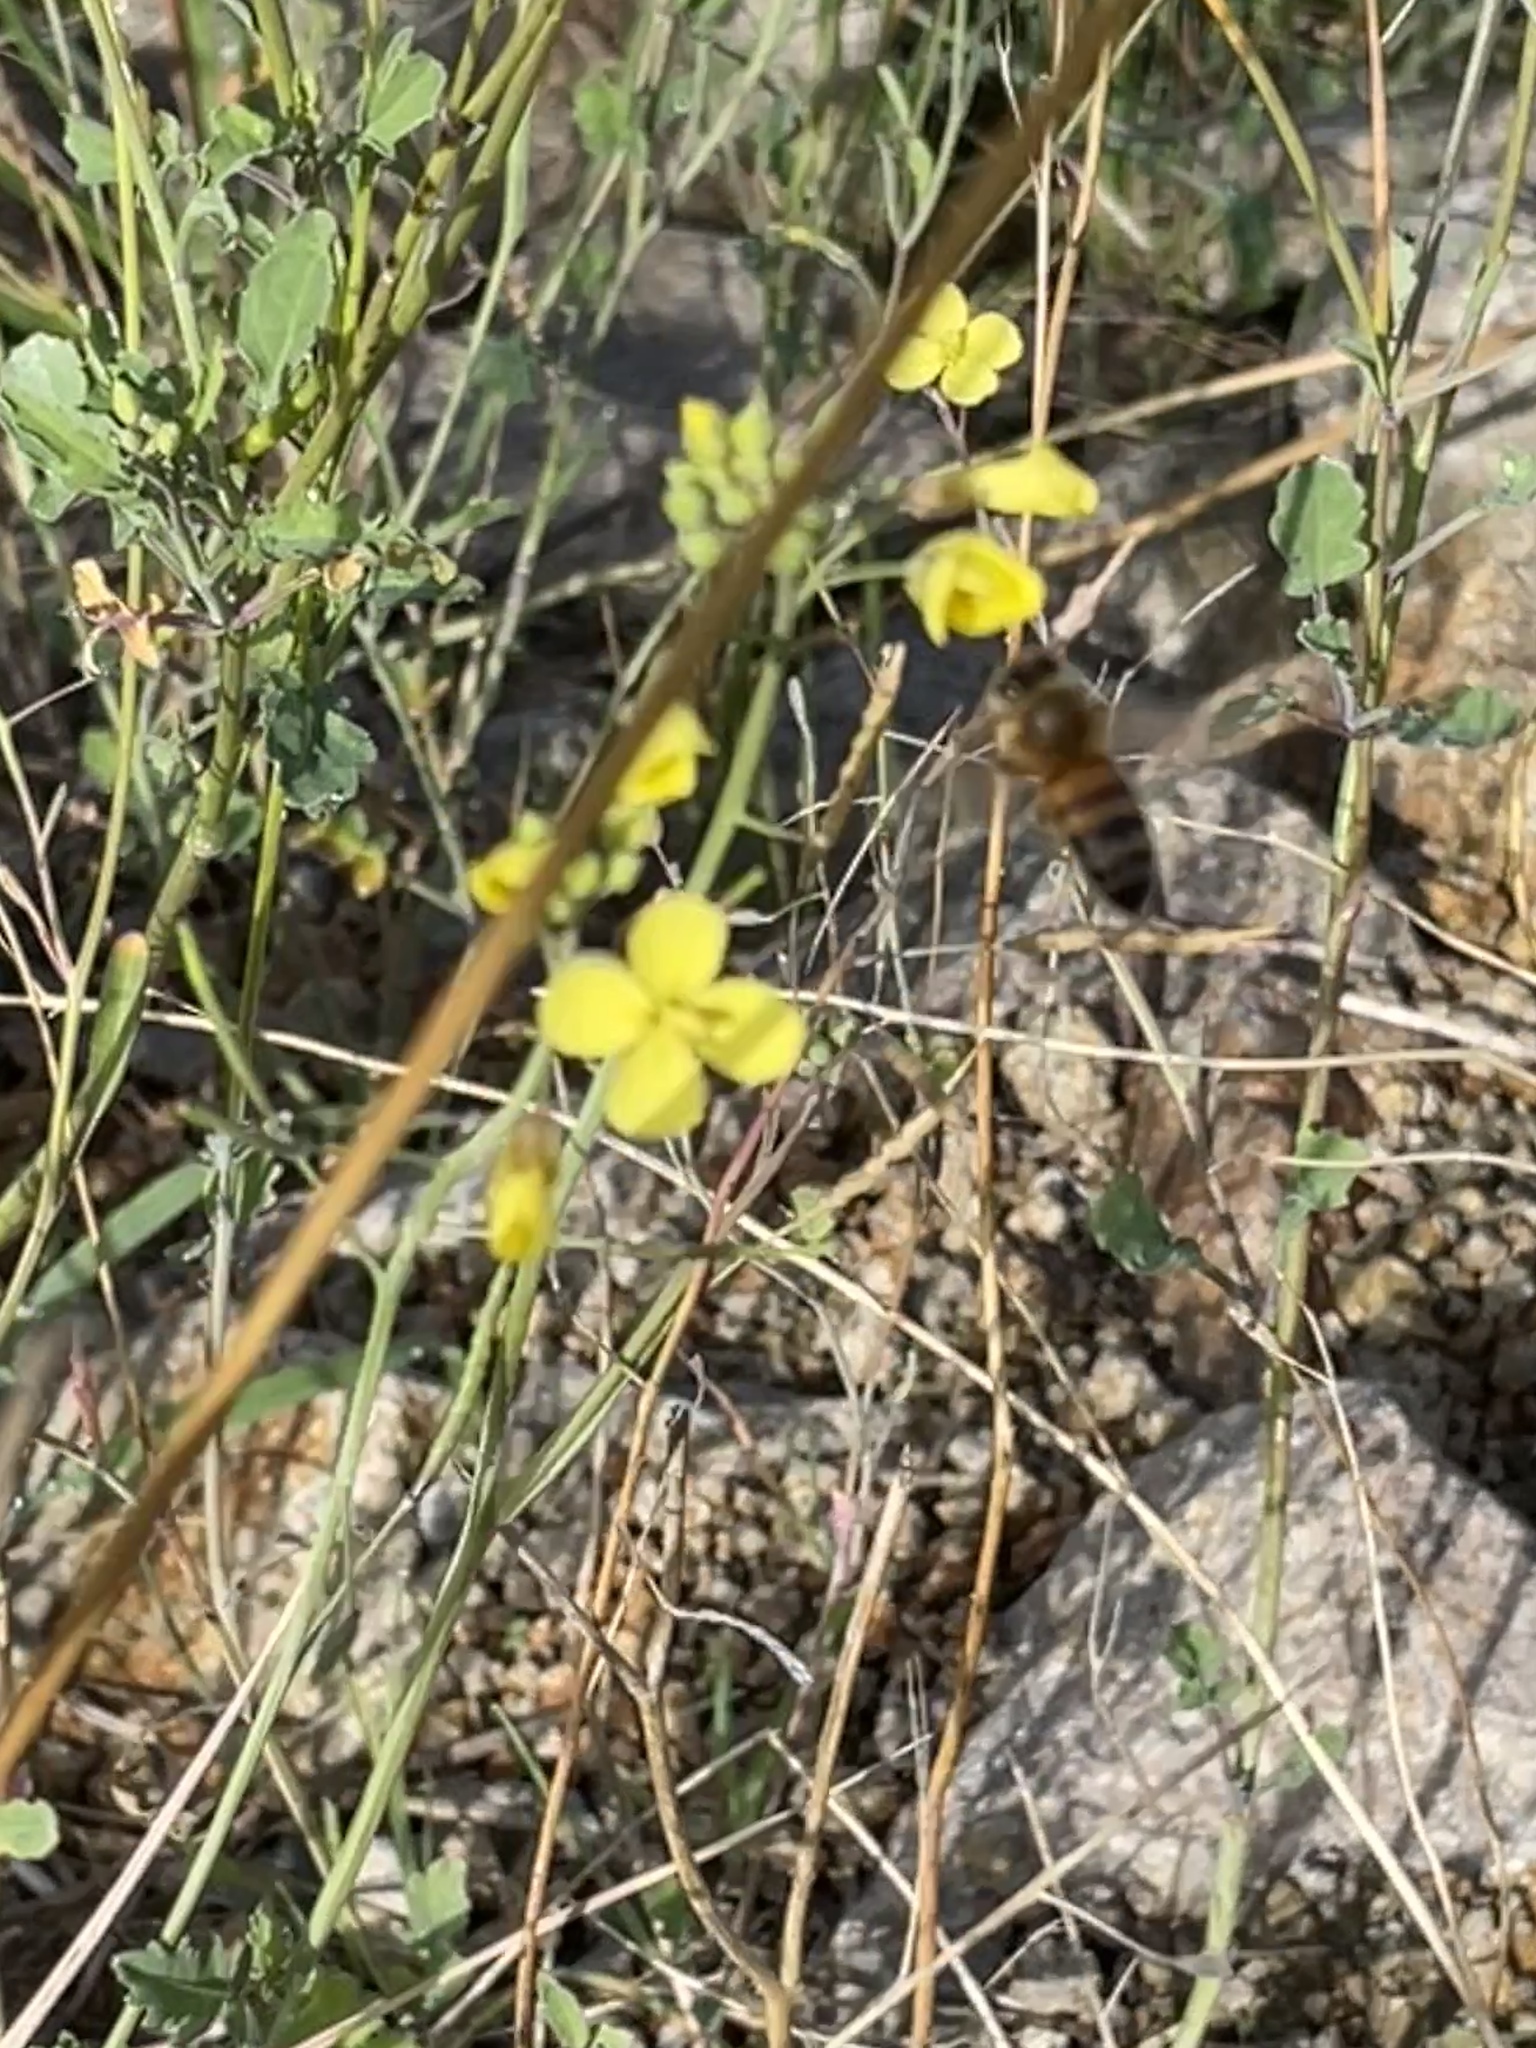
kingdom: Animalia
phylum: Arthropoda
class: Insecta
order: Hymenoptera
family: Apidae
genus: Apis
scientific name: Apis mellifera
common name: Honey bee
